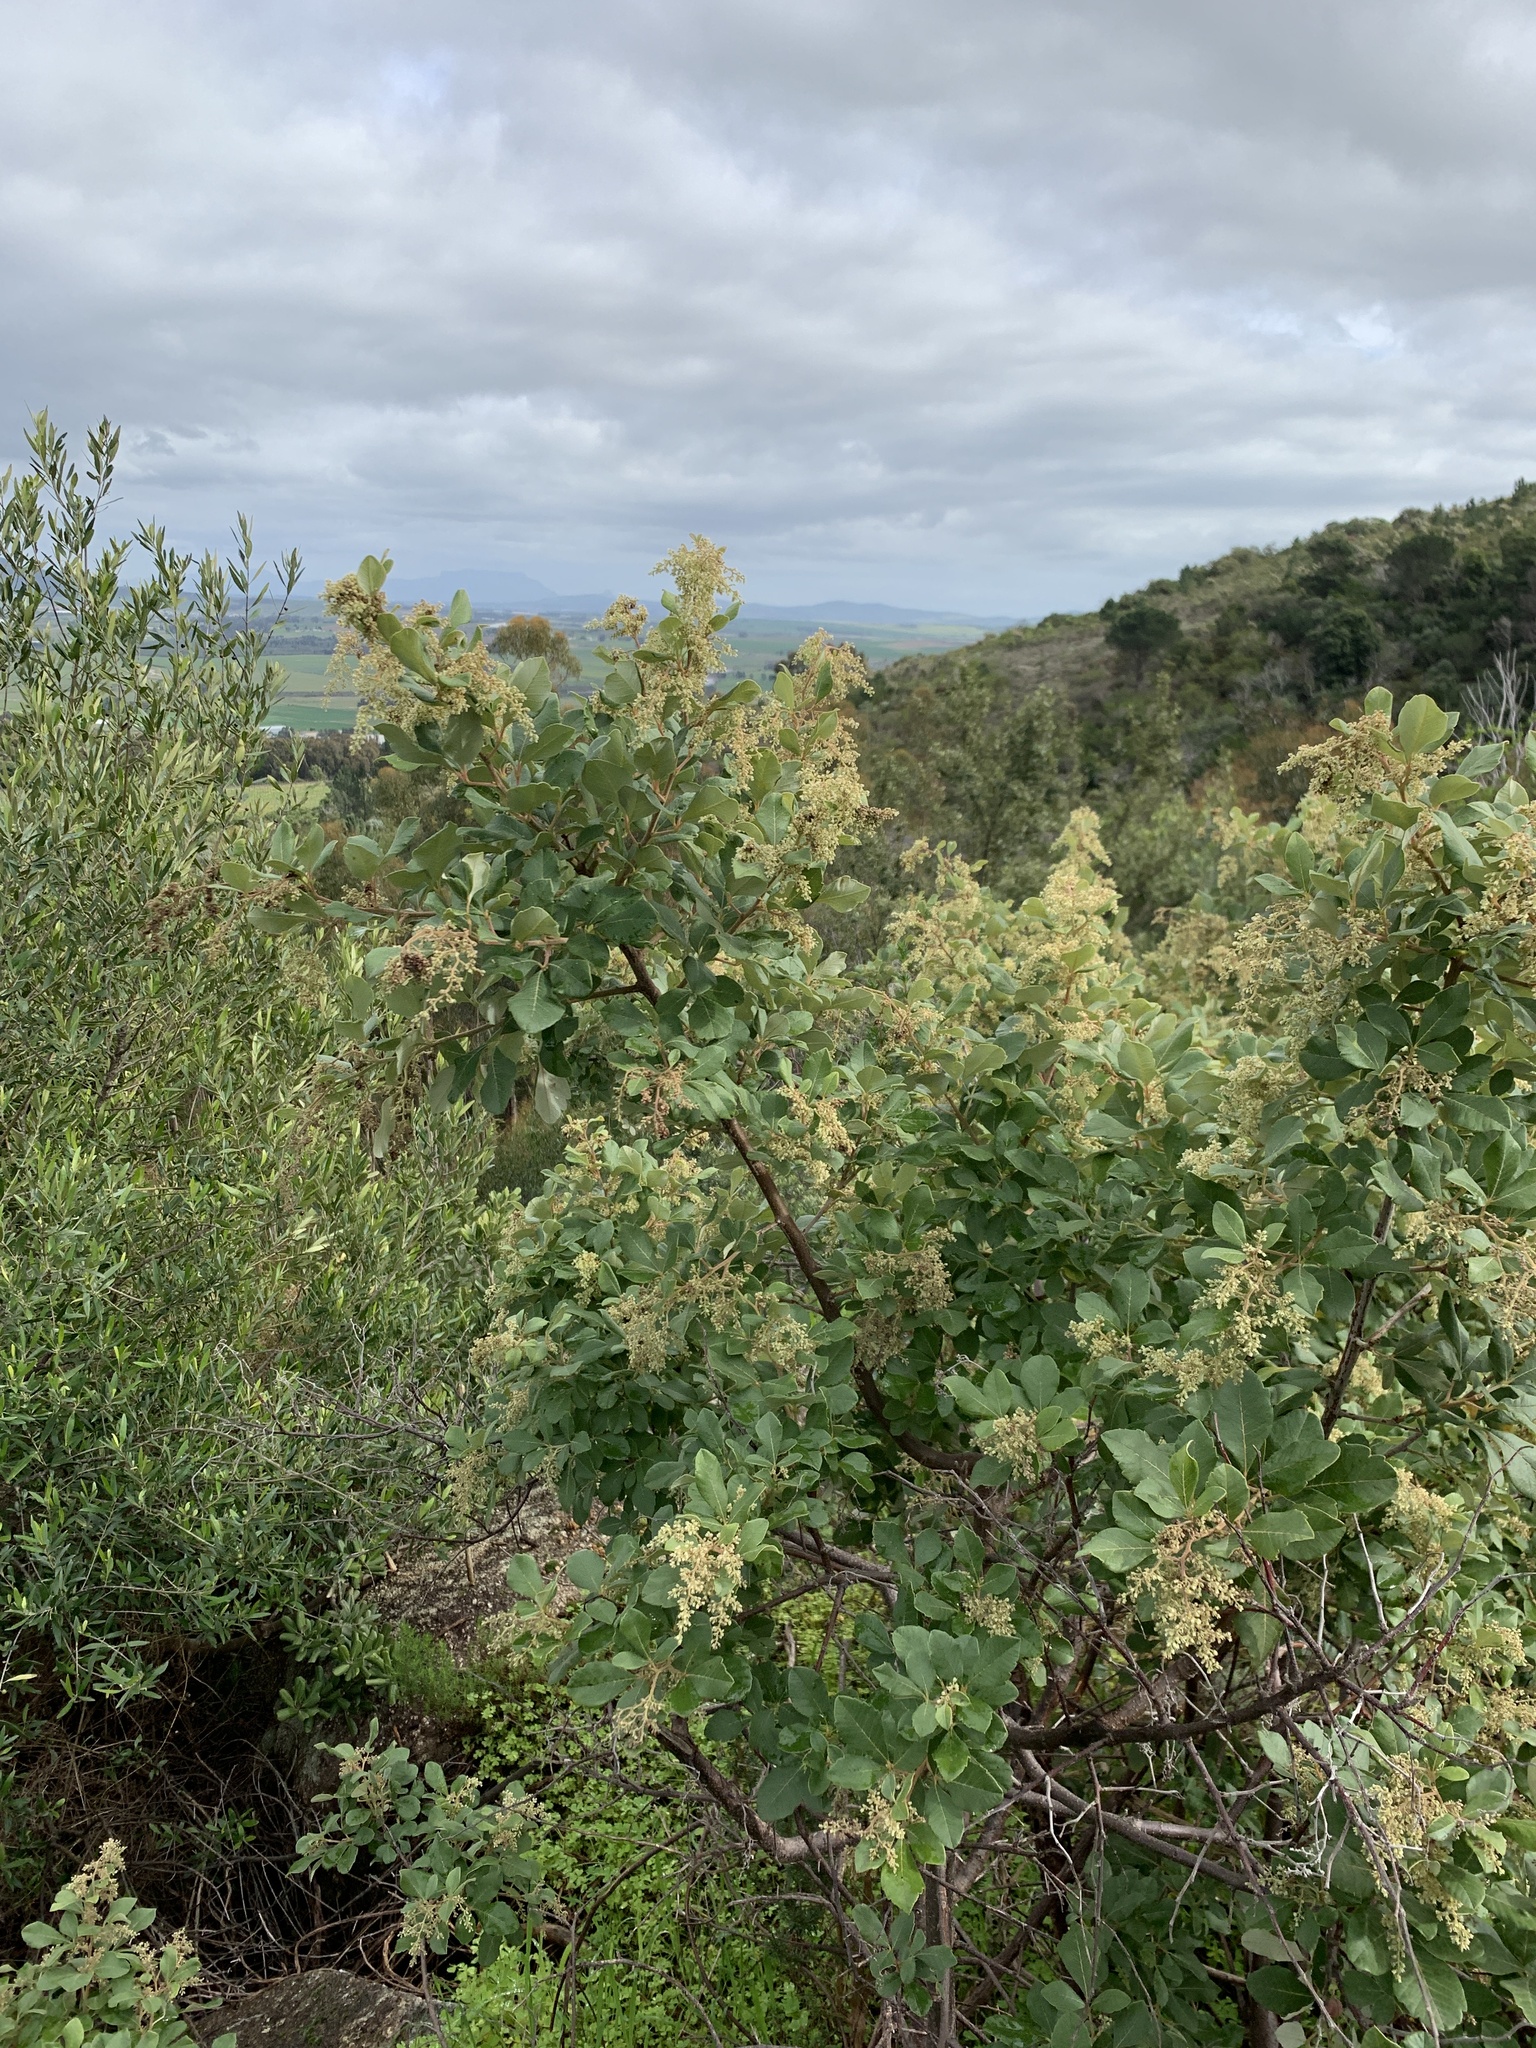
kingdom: Plantae
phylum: Tracheophyta
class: Magnoliopsida
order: Sapindales
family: Anacardiaceae
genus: Searsia
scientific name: Searsia tomentosa
